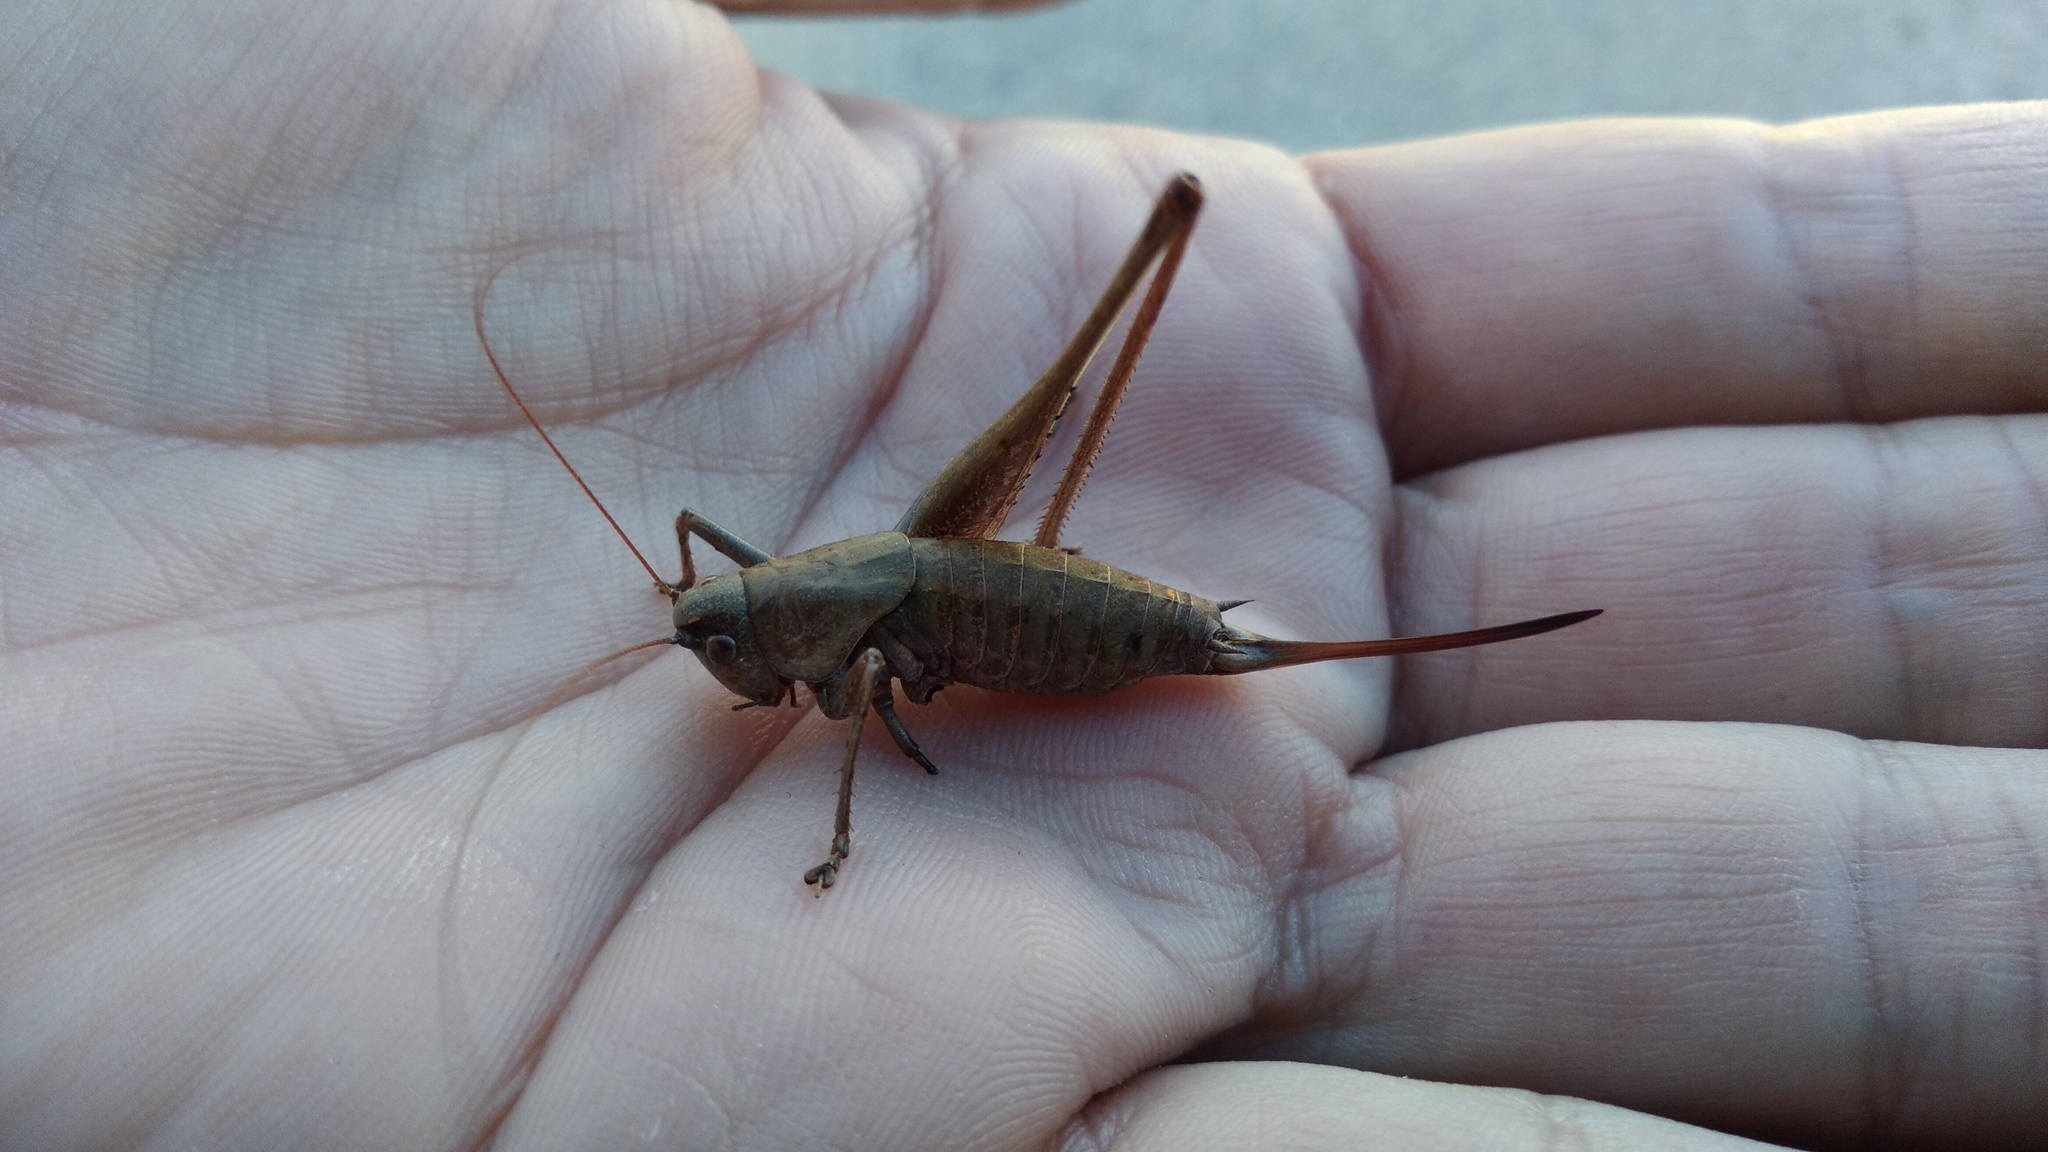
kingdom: Animalia
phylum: Arthropoda
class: Insecta
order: Orthoptera
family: Tettigoniidae
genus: Rhacocleis
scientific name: Rhacocleis poneli
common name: Ponel's bush-cricket
